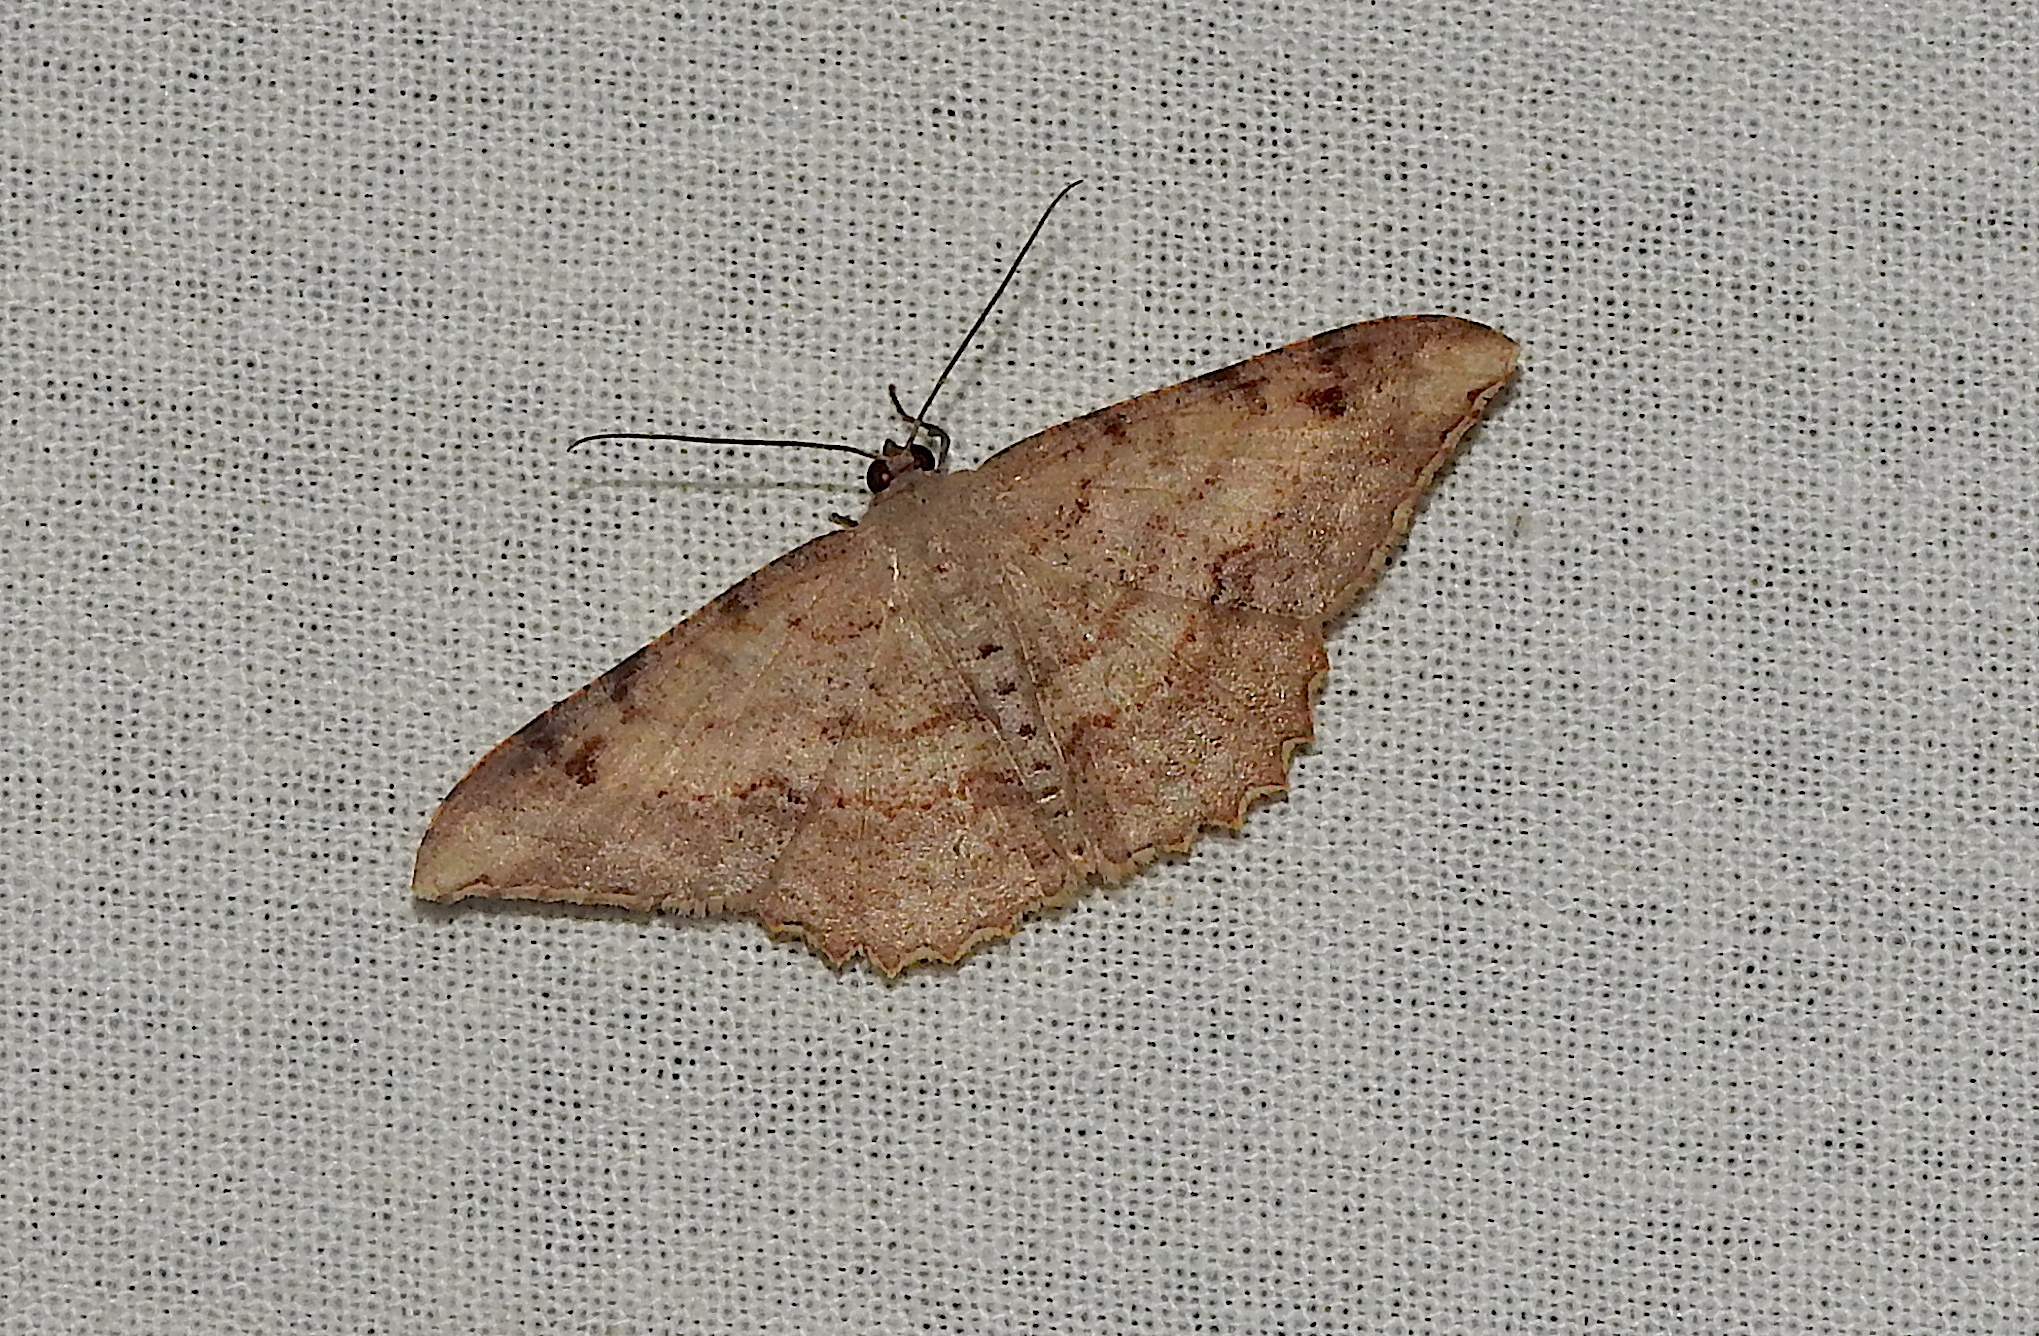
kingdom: Animalia
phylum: Arthropoda
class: Insecta
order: Lepidoptera
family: Geometridae
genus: Luxiaria
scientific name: Luxiaria hypaphanes
